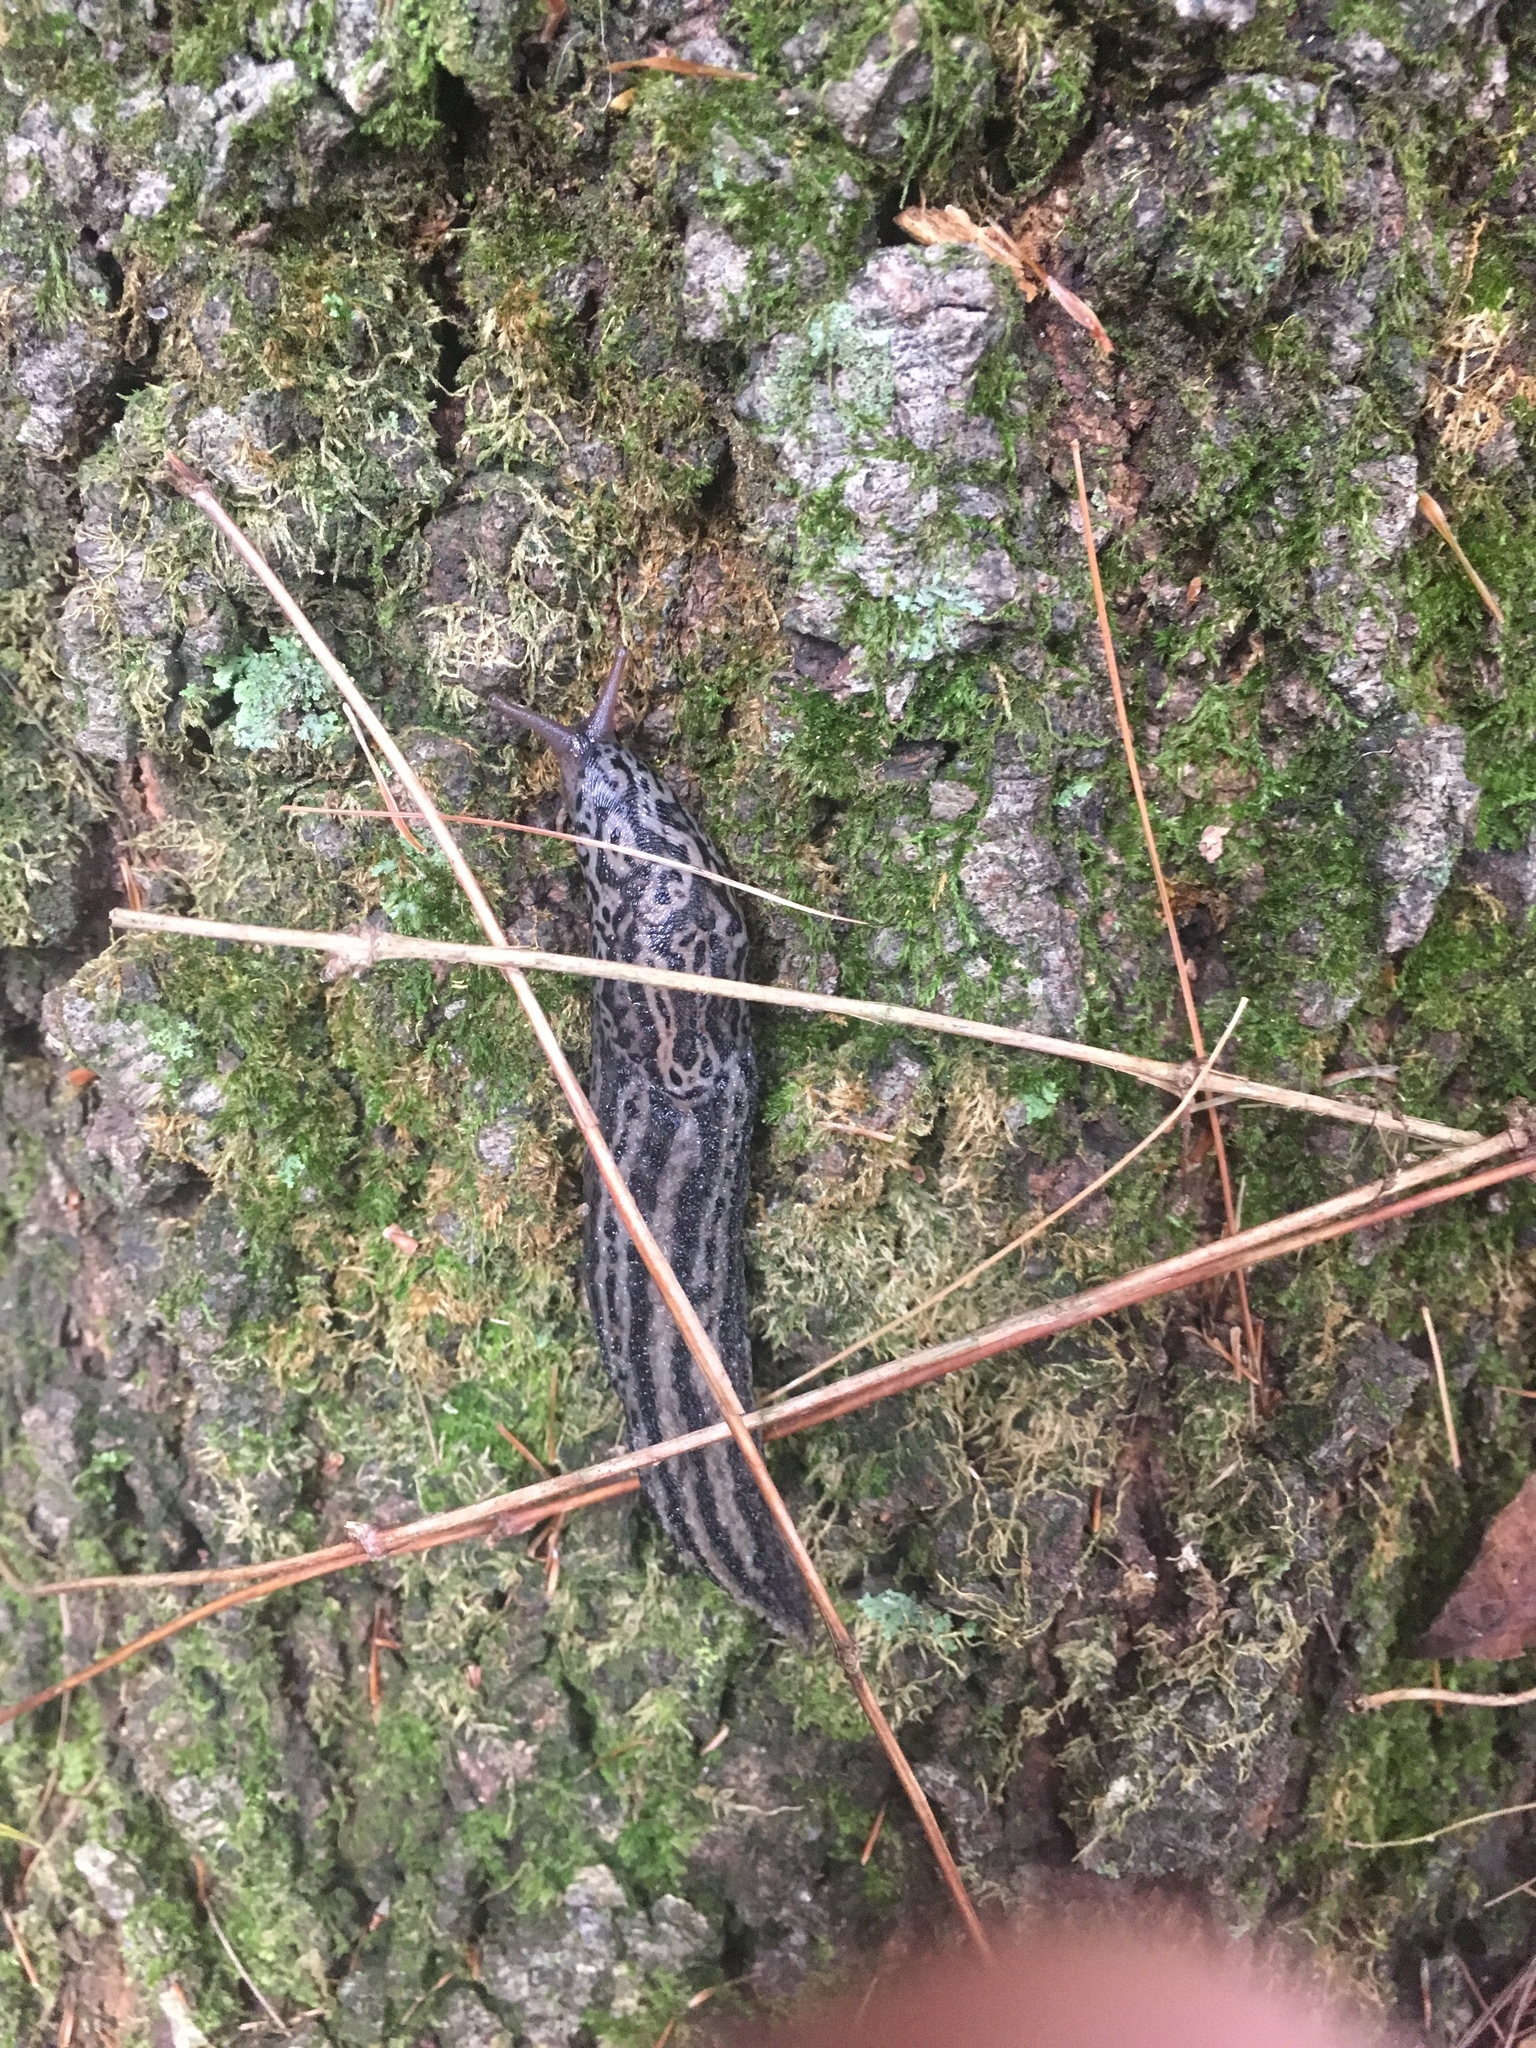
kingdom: Animalia
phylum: Mollusca
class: Gastropoda
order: Stylommatophora
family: Limacidae
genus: Limax
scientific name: Limax maximus
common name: Great grey slug
